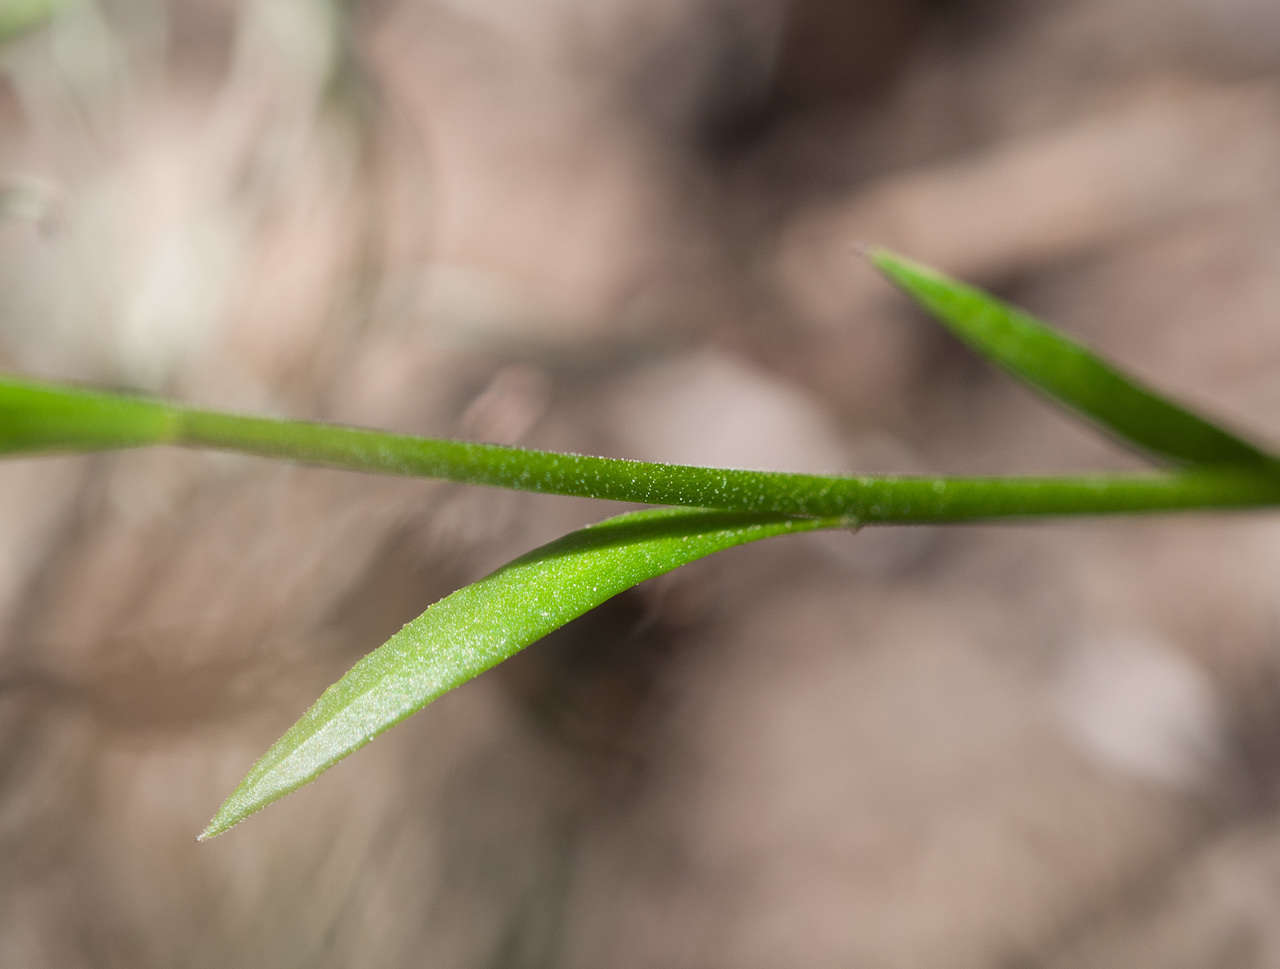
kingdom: Plantae
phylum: Tracheophyta
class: Magnoliopsida
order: Fabales
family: Polygalaceae
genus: Comesperma
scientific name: Comesperma calymega
